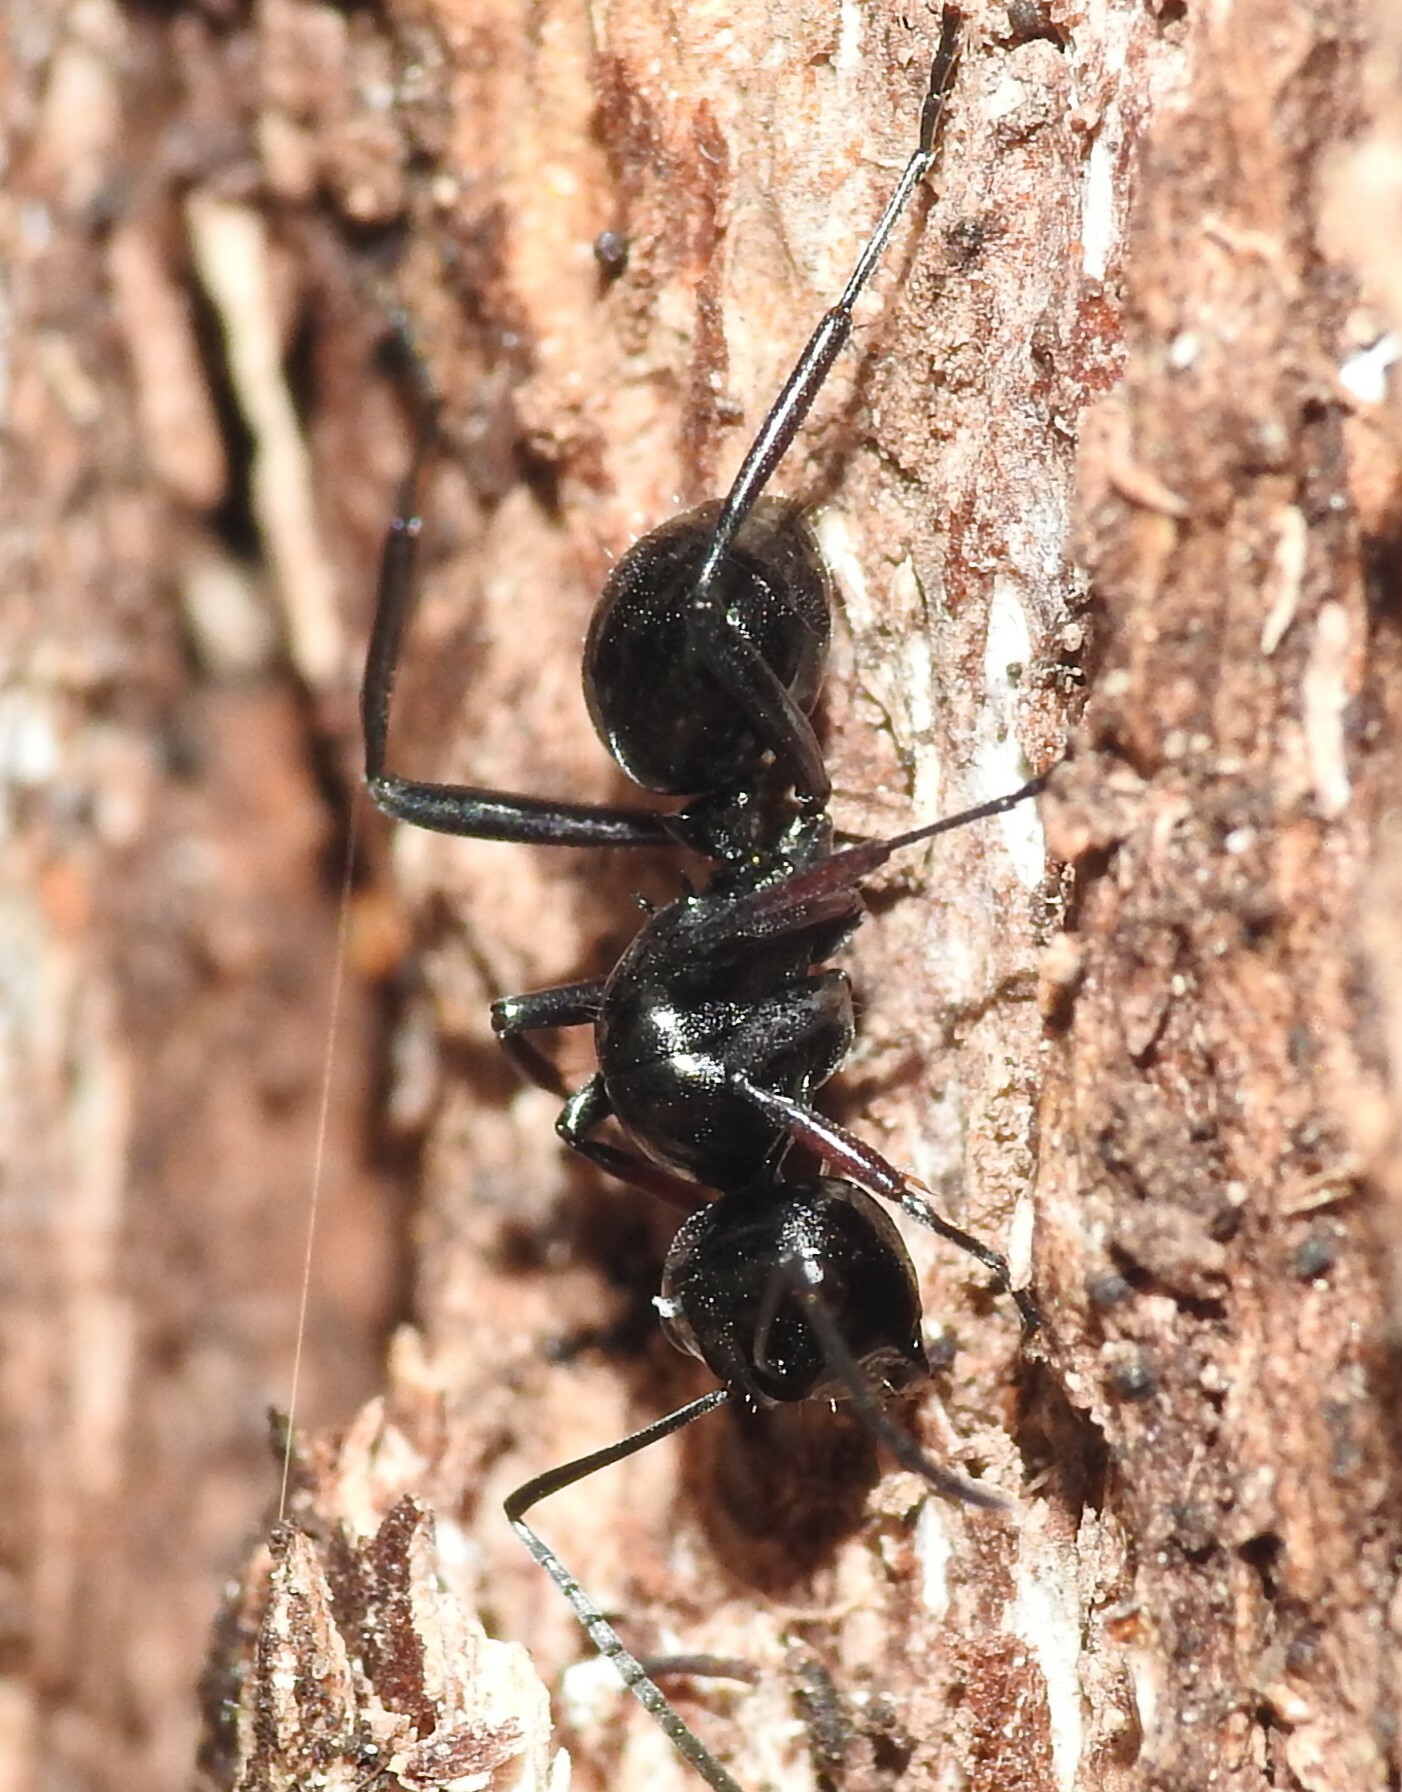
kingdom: Animalia
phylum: Arthropoda
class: Insecta
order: Hymenoptera
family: Formicidae
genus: Polyrhachis
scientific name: Polyrhachis australis
